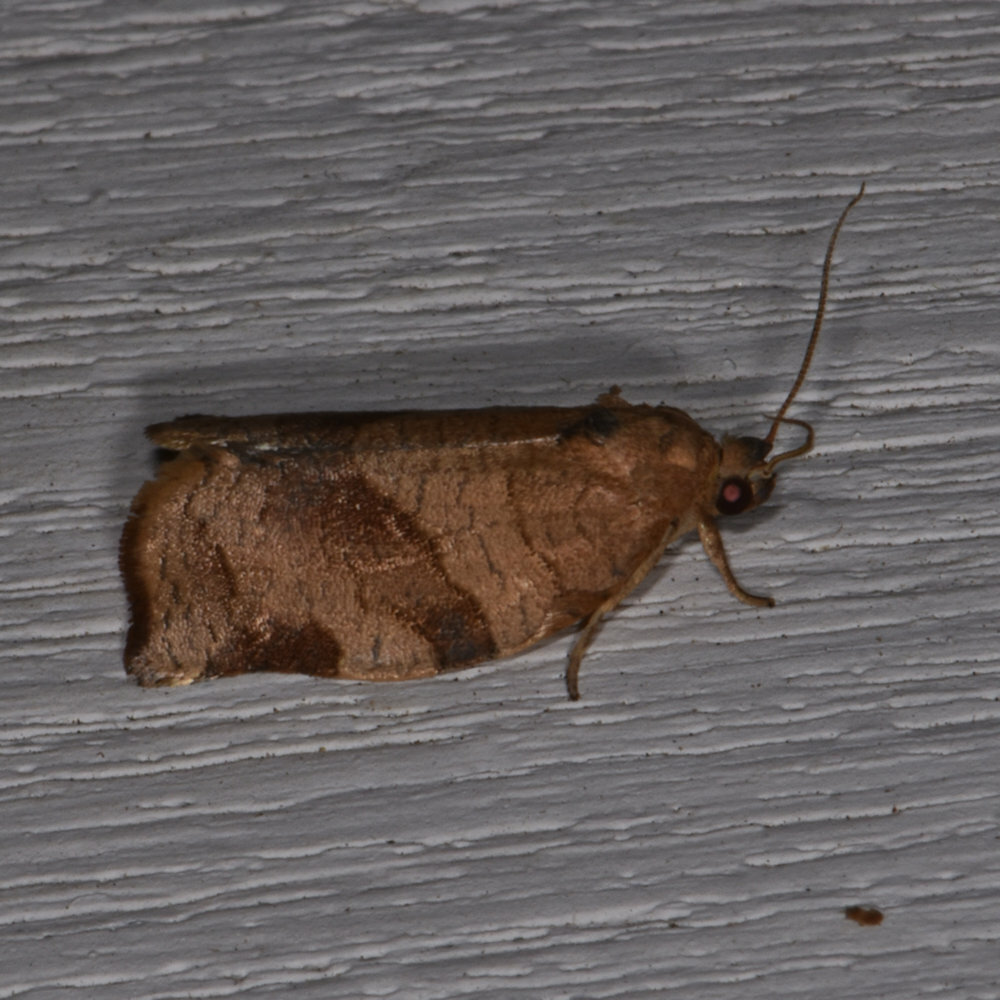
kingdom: Animalia
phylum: Arthropoda
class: Insecta
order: Lepidoptera
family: Tortricidae
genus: Choristoneura
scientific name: Choristoneura rosaceana
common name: Oblique-banded leafroller moth
